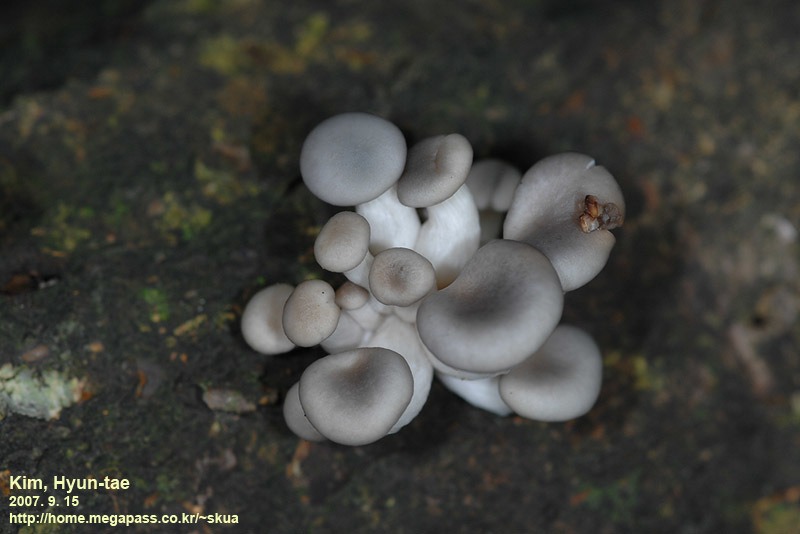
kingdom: Fungi
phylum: Basidiomycota
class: Agaricomycetes
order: Agaricales
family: Pleurotaceae
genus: Pleurotus
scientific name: Pleurotus ostreatus
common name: Oyster mushroom
